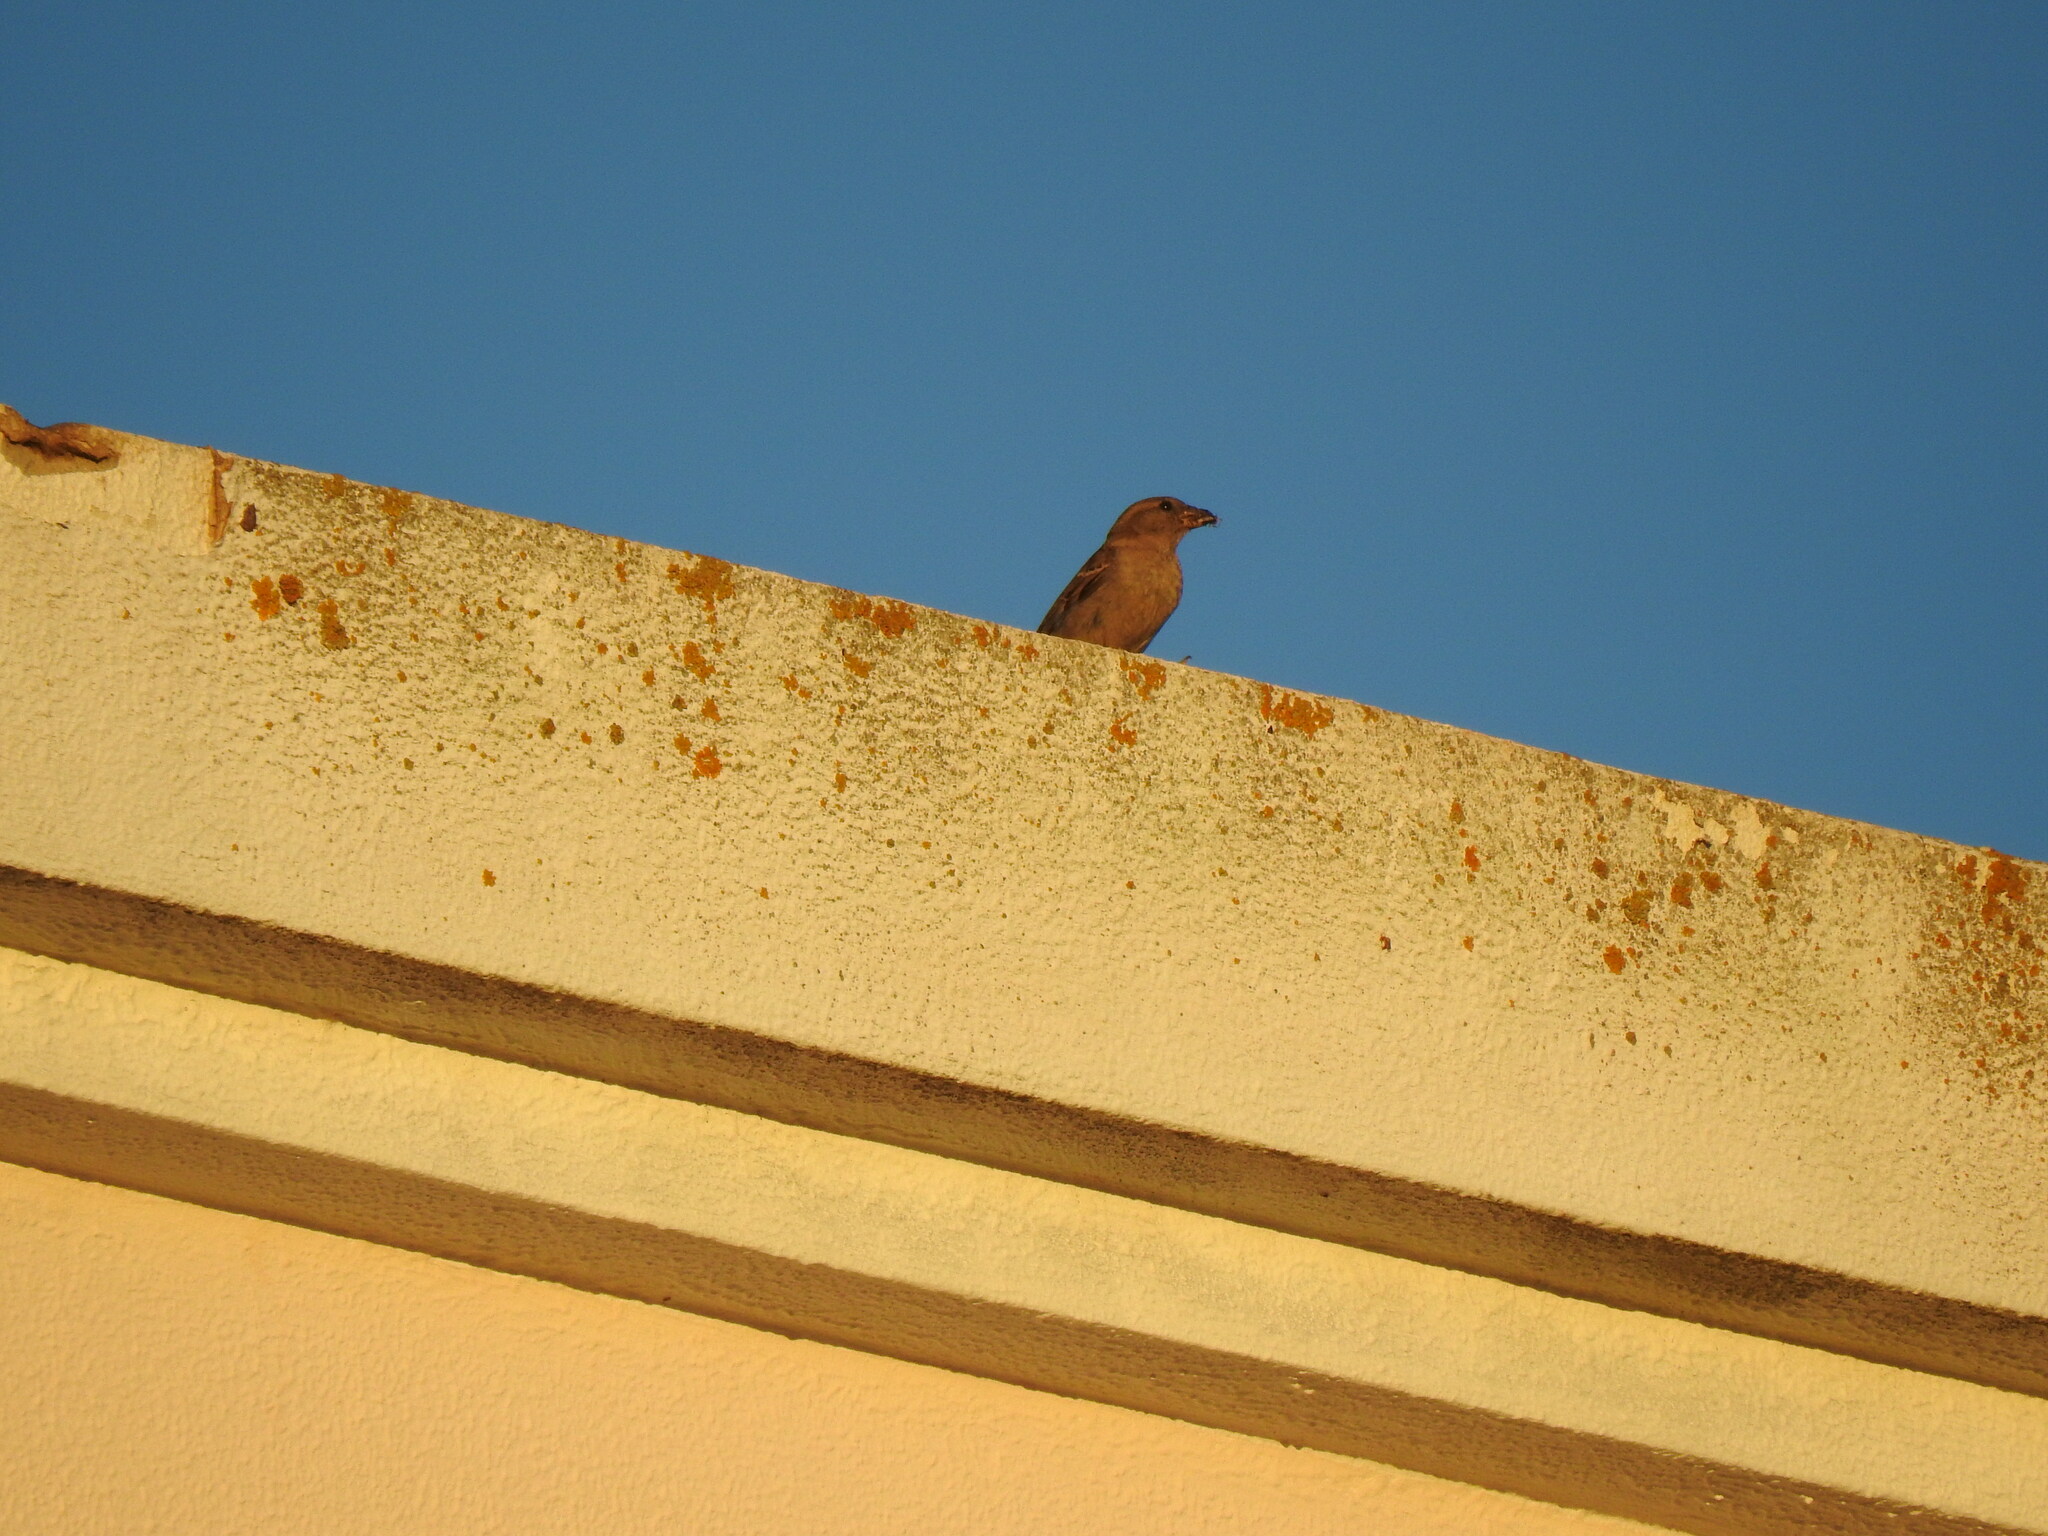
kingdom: Animalia
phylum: Chordata
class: Aves
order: Passeriformes
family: Passeridae
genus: Passer
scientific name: Passer domesticus
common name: House sparrow
